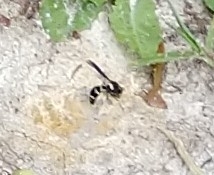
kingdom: Animalia
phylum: Arthropoda
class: Insecta
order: Hymenoptera
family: Vespidae
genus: Eumenes
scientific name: Eumenes fraternus
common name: Fraternal potter wasp
